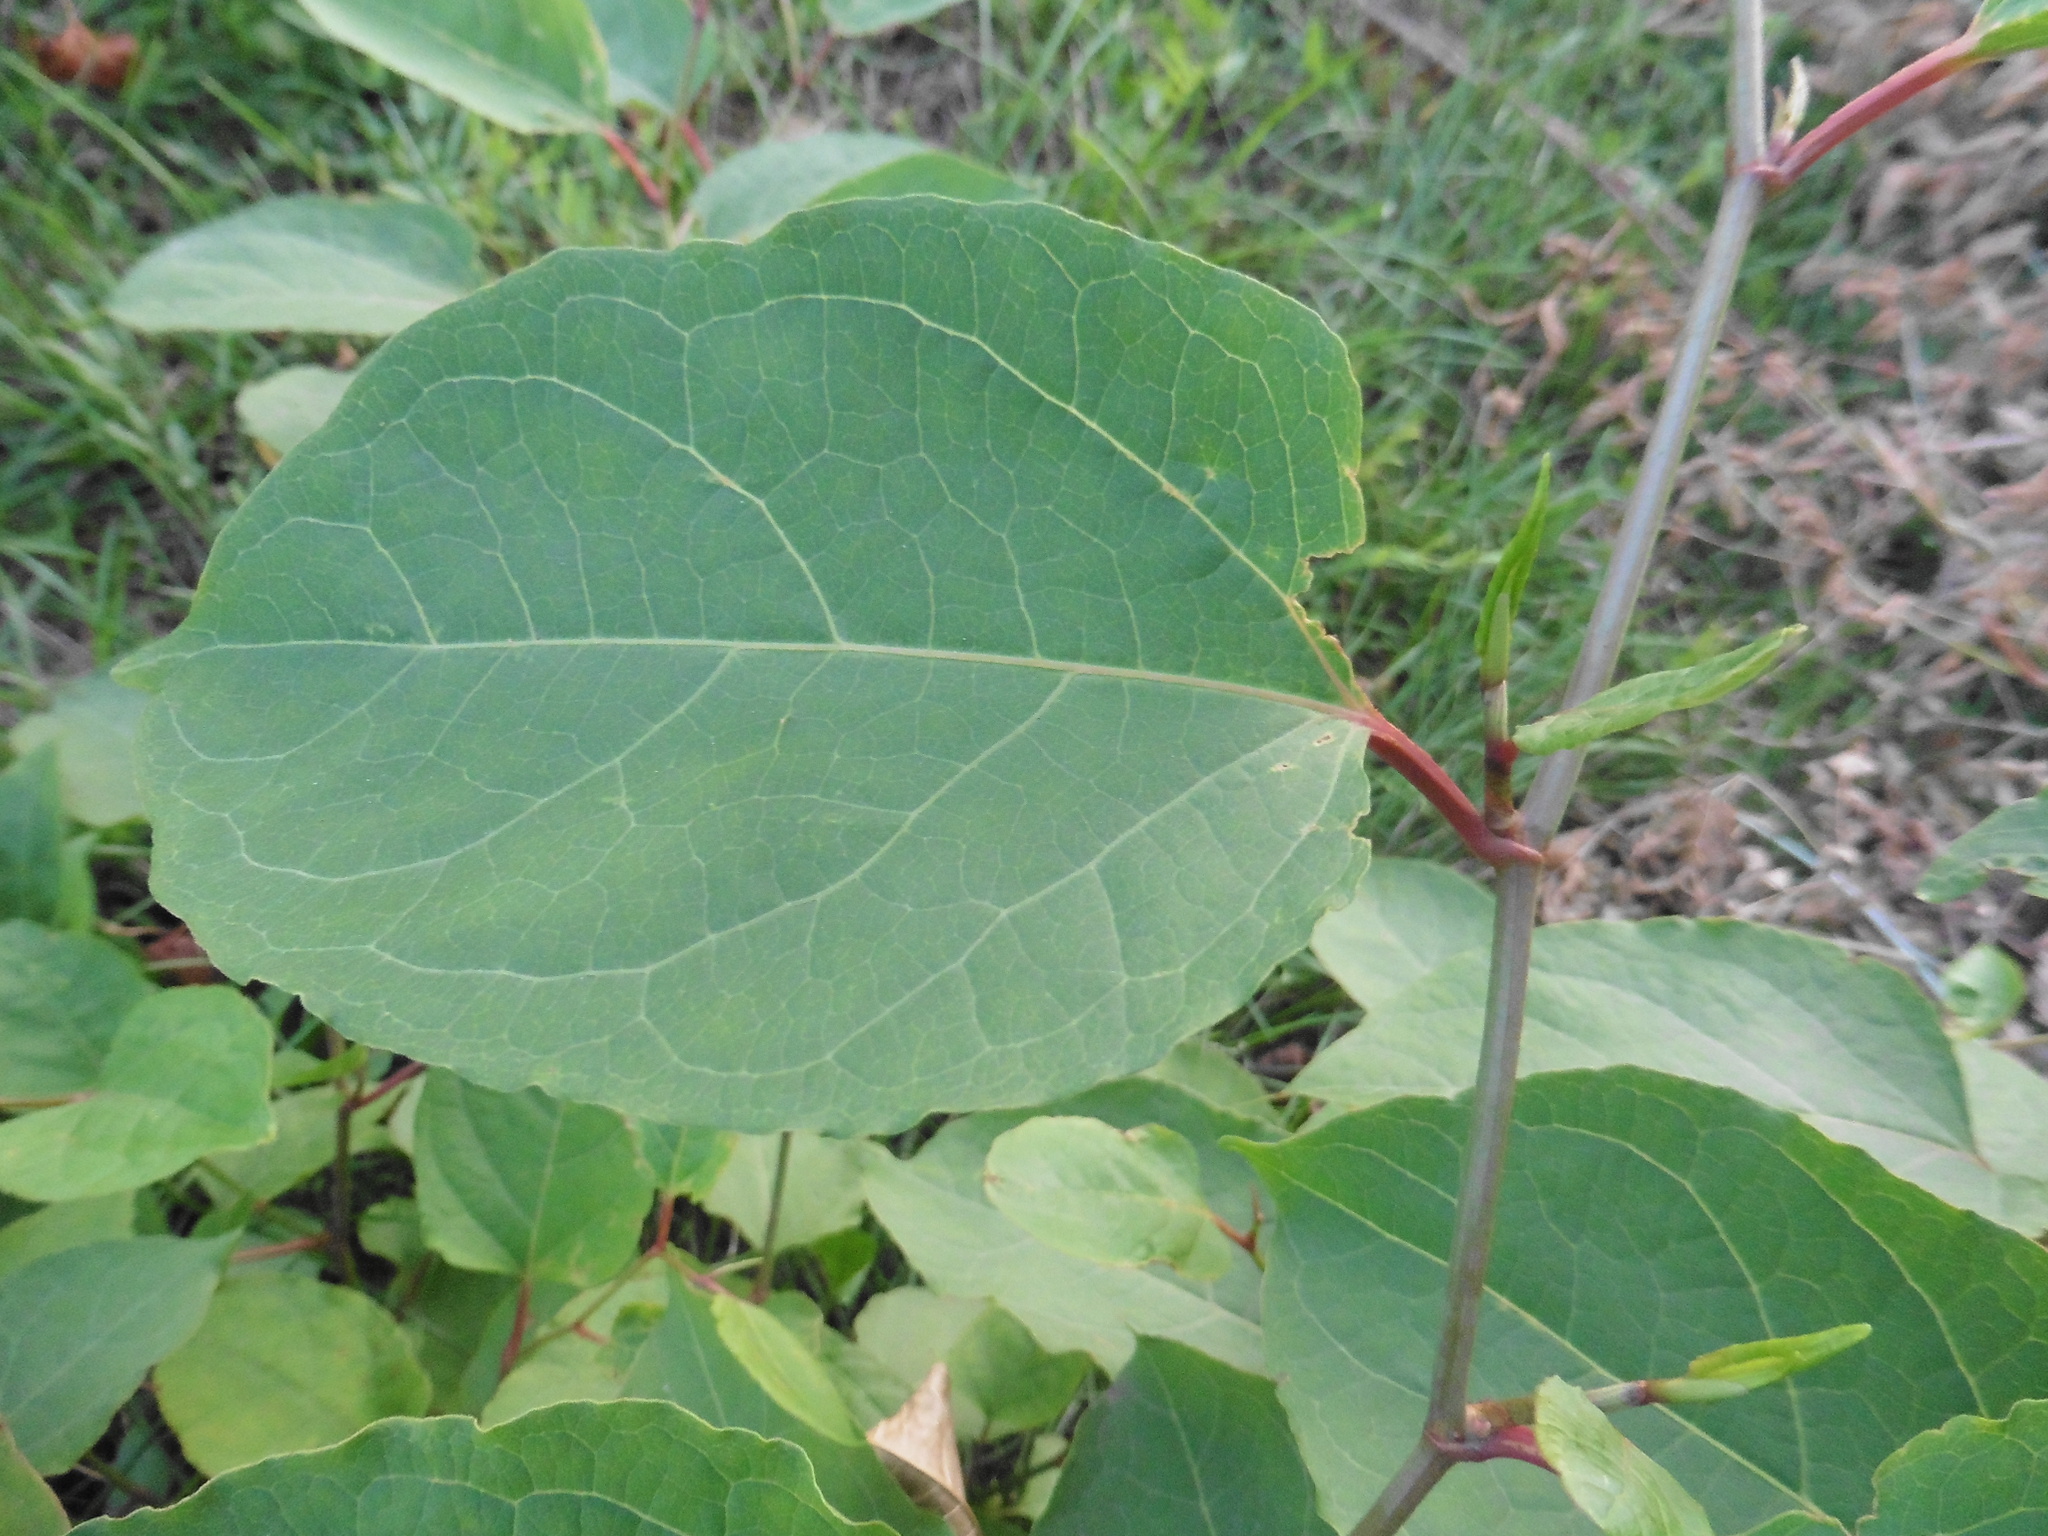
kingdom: Plantae
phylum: Tracheophyta
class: Magnoliopsida
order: Caryophyllales
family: Polygonaceae
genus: Reynoutria
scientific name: Reynoutria bohemica
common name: Bohemian knotweed
